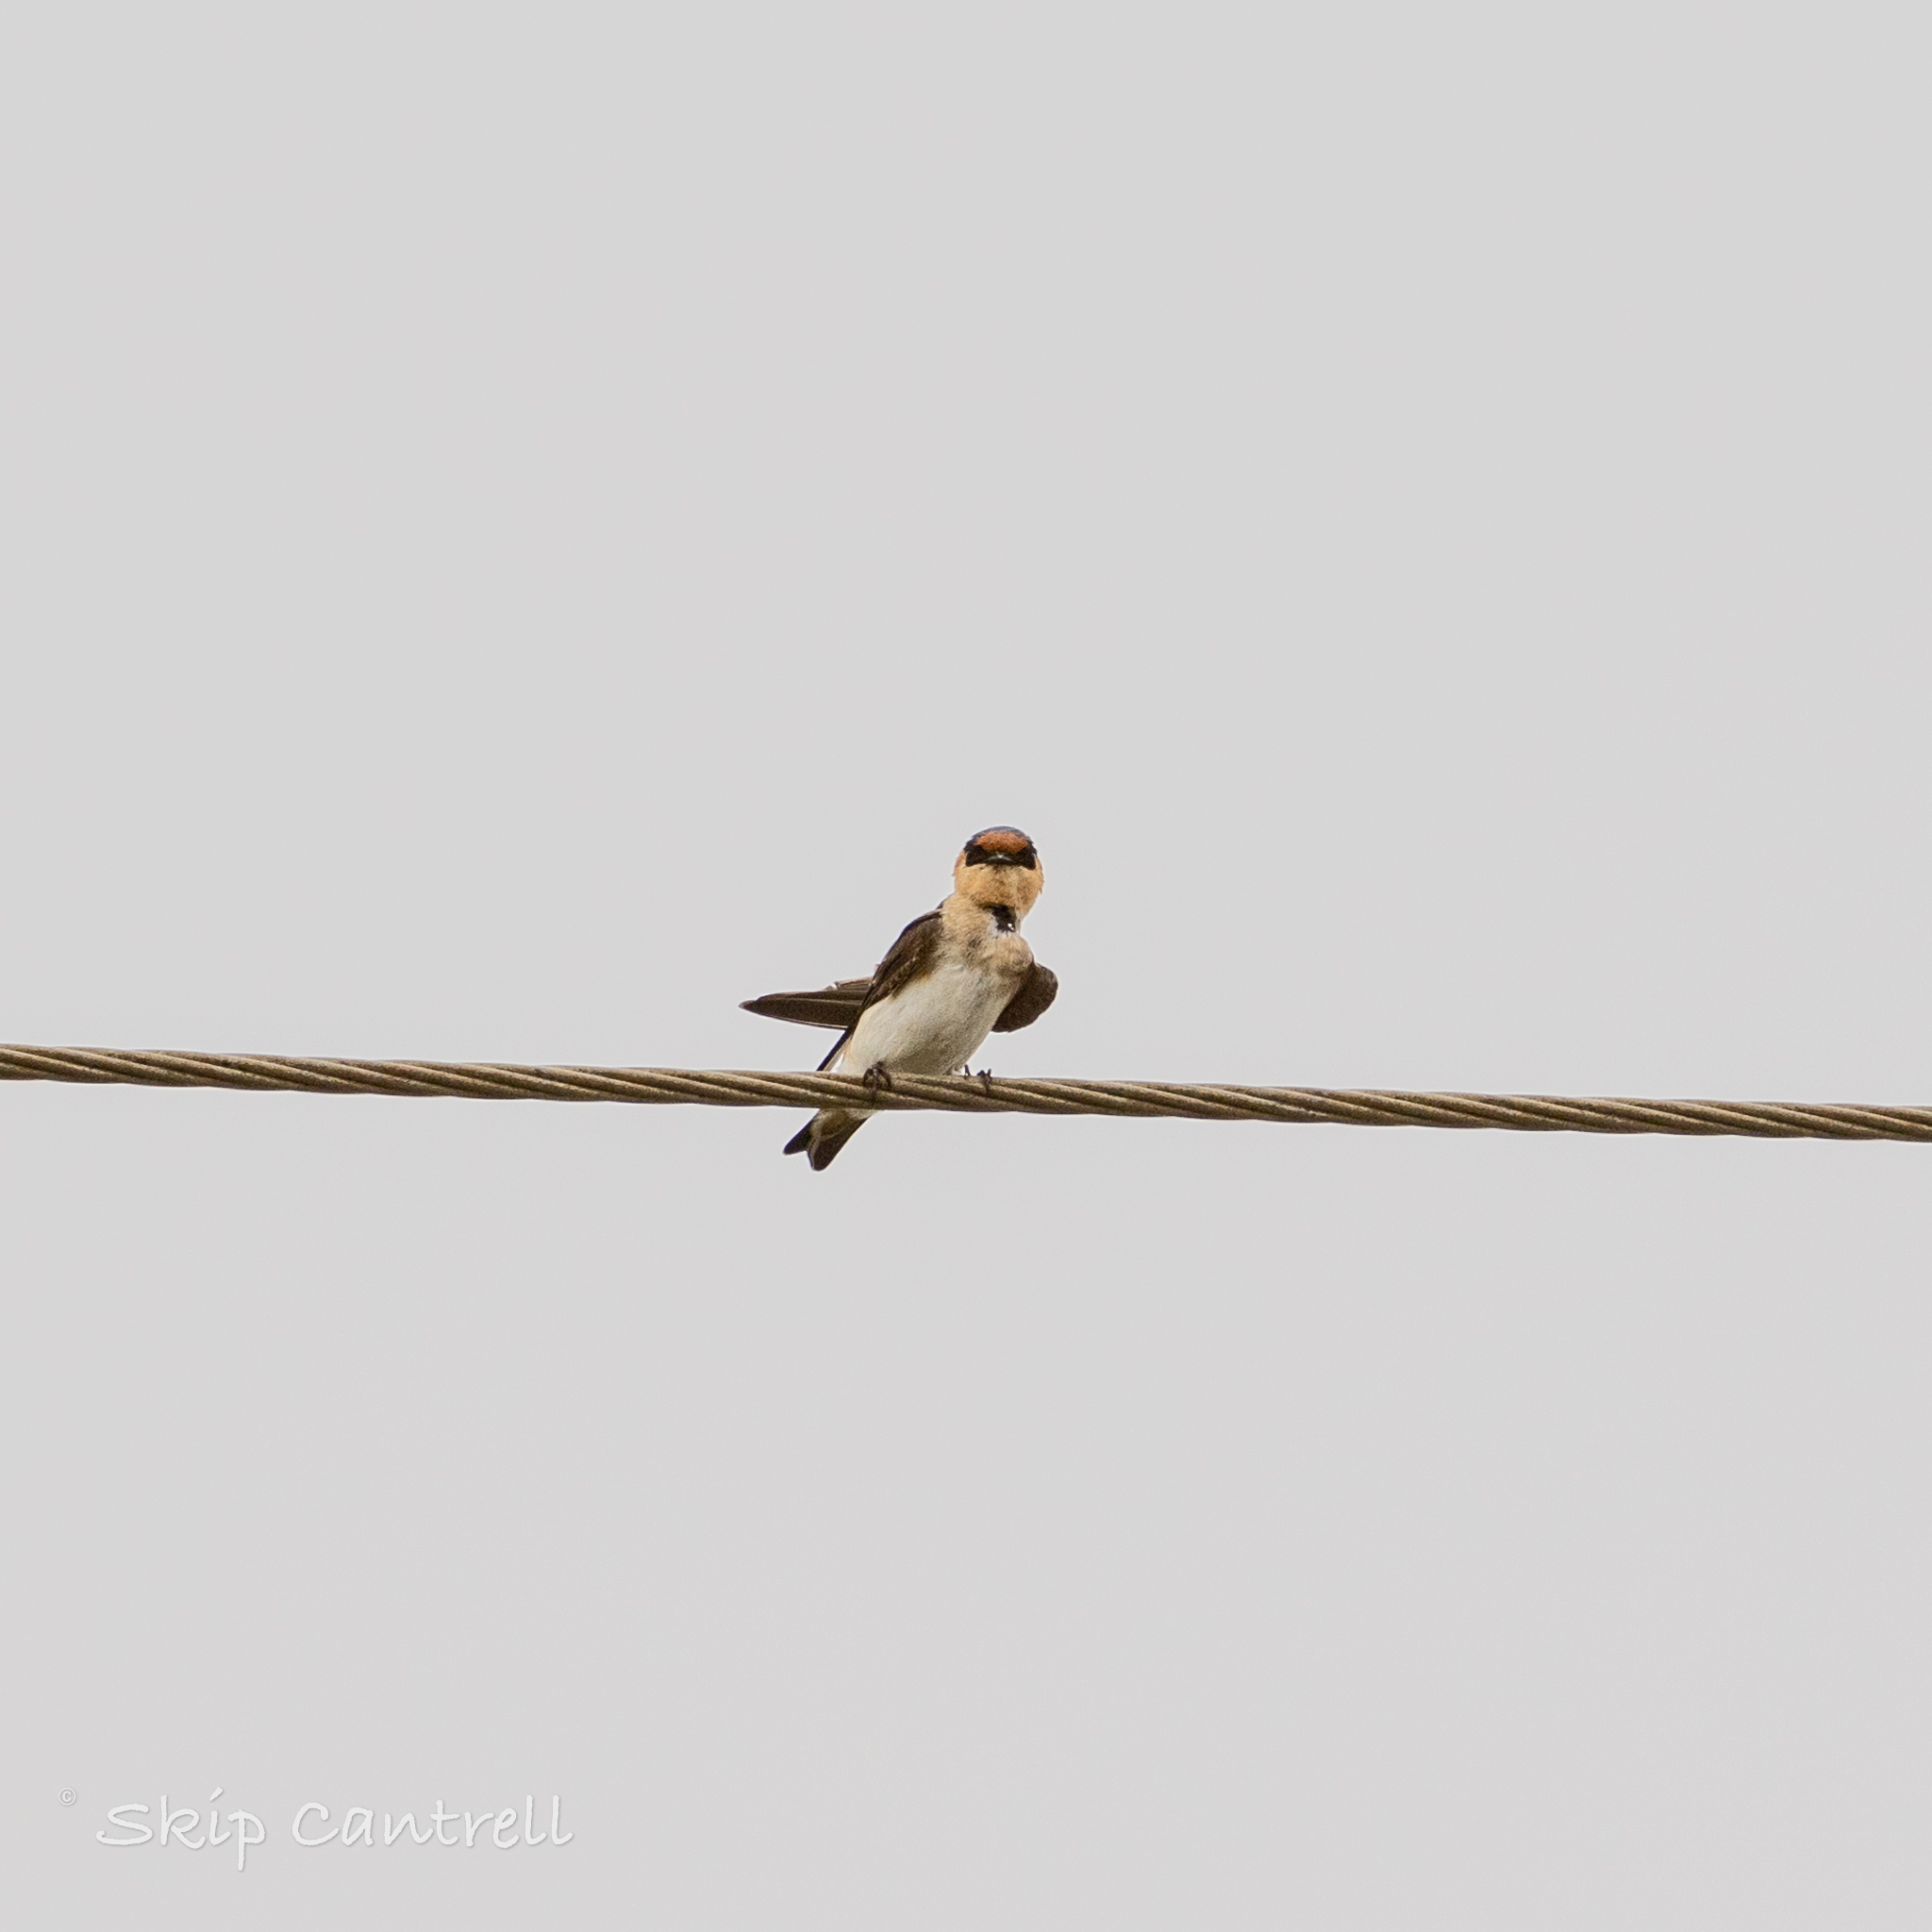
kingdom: Animalia
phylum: Chordata
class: Aves
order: Passeriformes
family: Hirundinidae
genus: Petrochelidon
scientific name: Petrochelidon fulva
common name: Cave swallow
